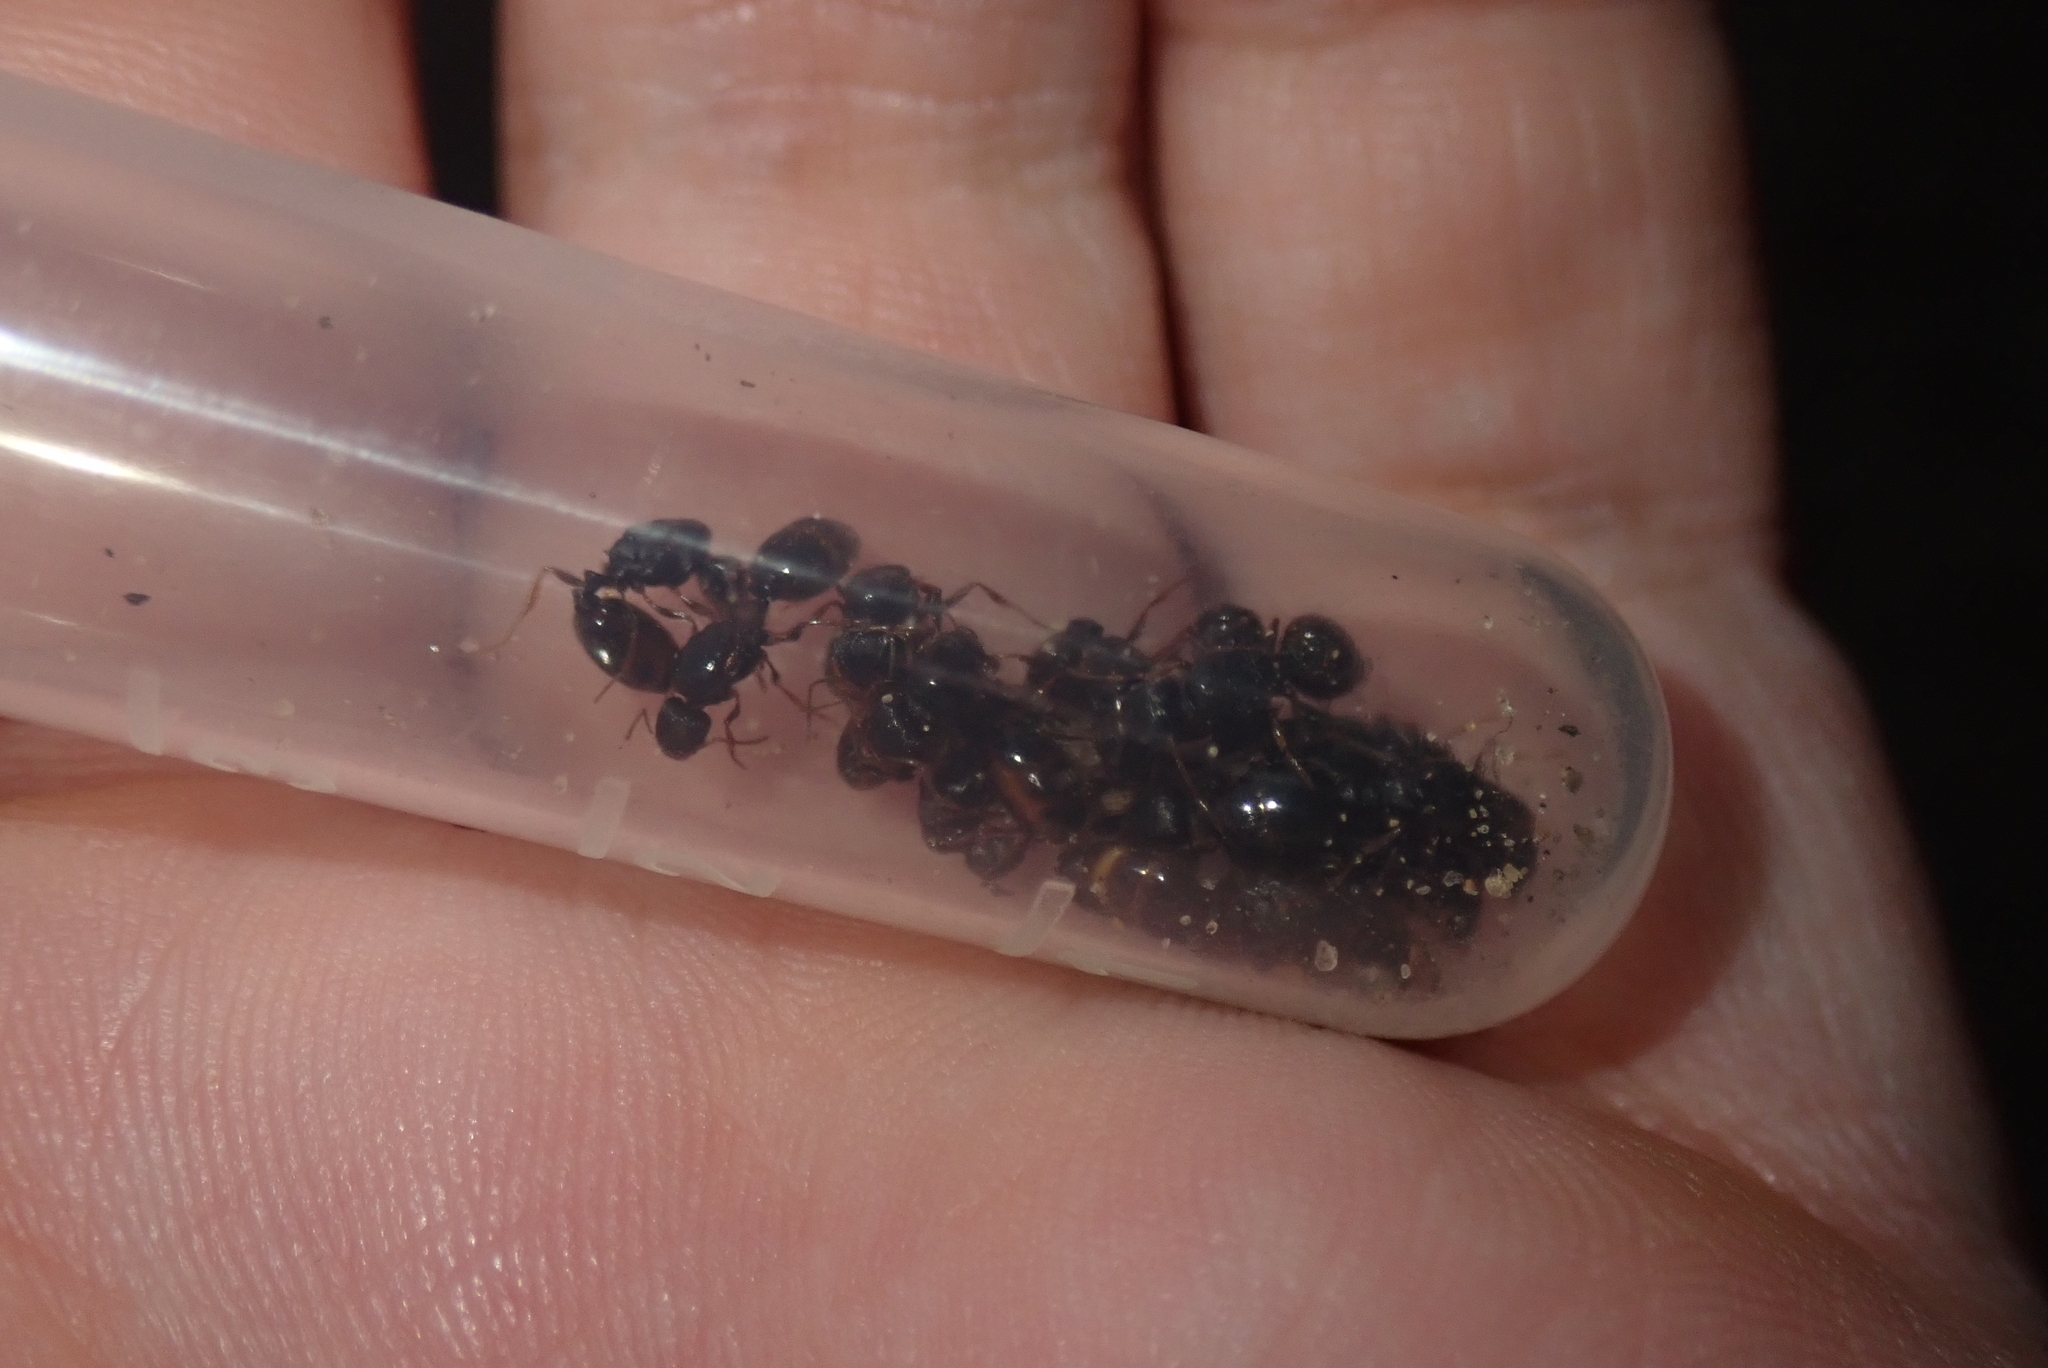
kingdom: Animalia
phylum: Arthropoda
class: Insecta
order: Hymenoptera
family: Formicidae
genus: Tetramorium
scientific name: Tetramorium immigrans
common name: Pavement ant
